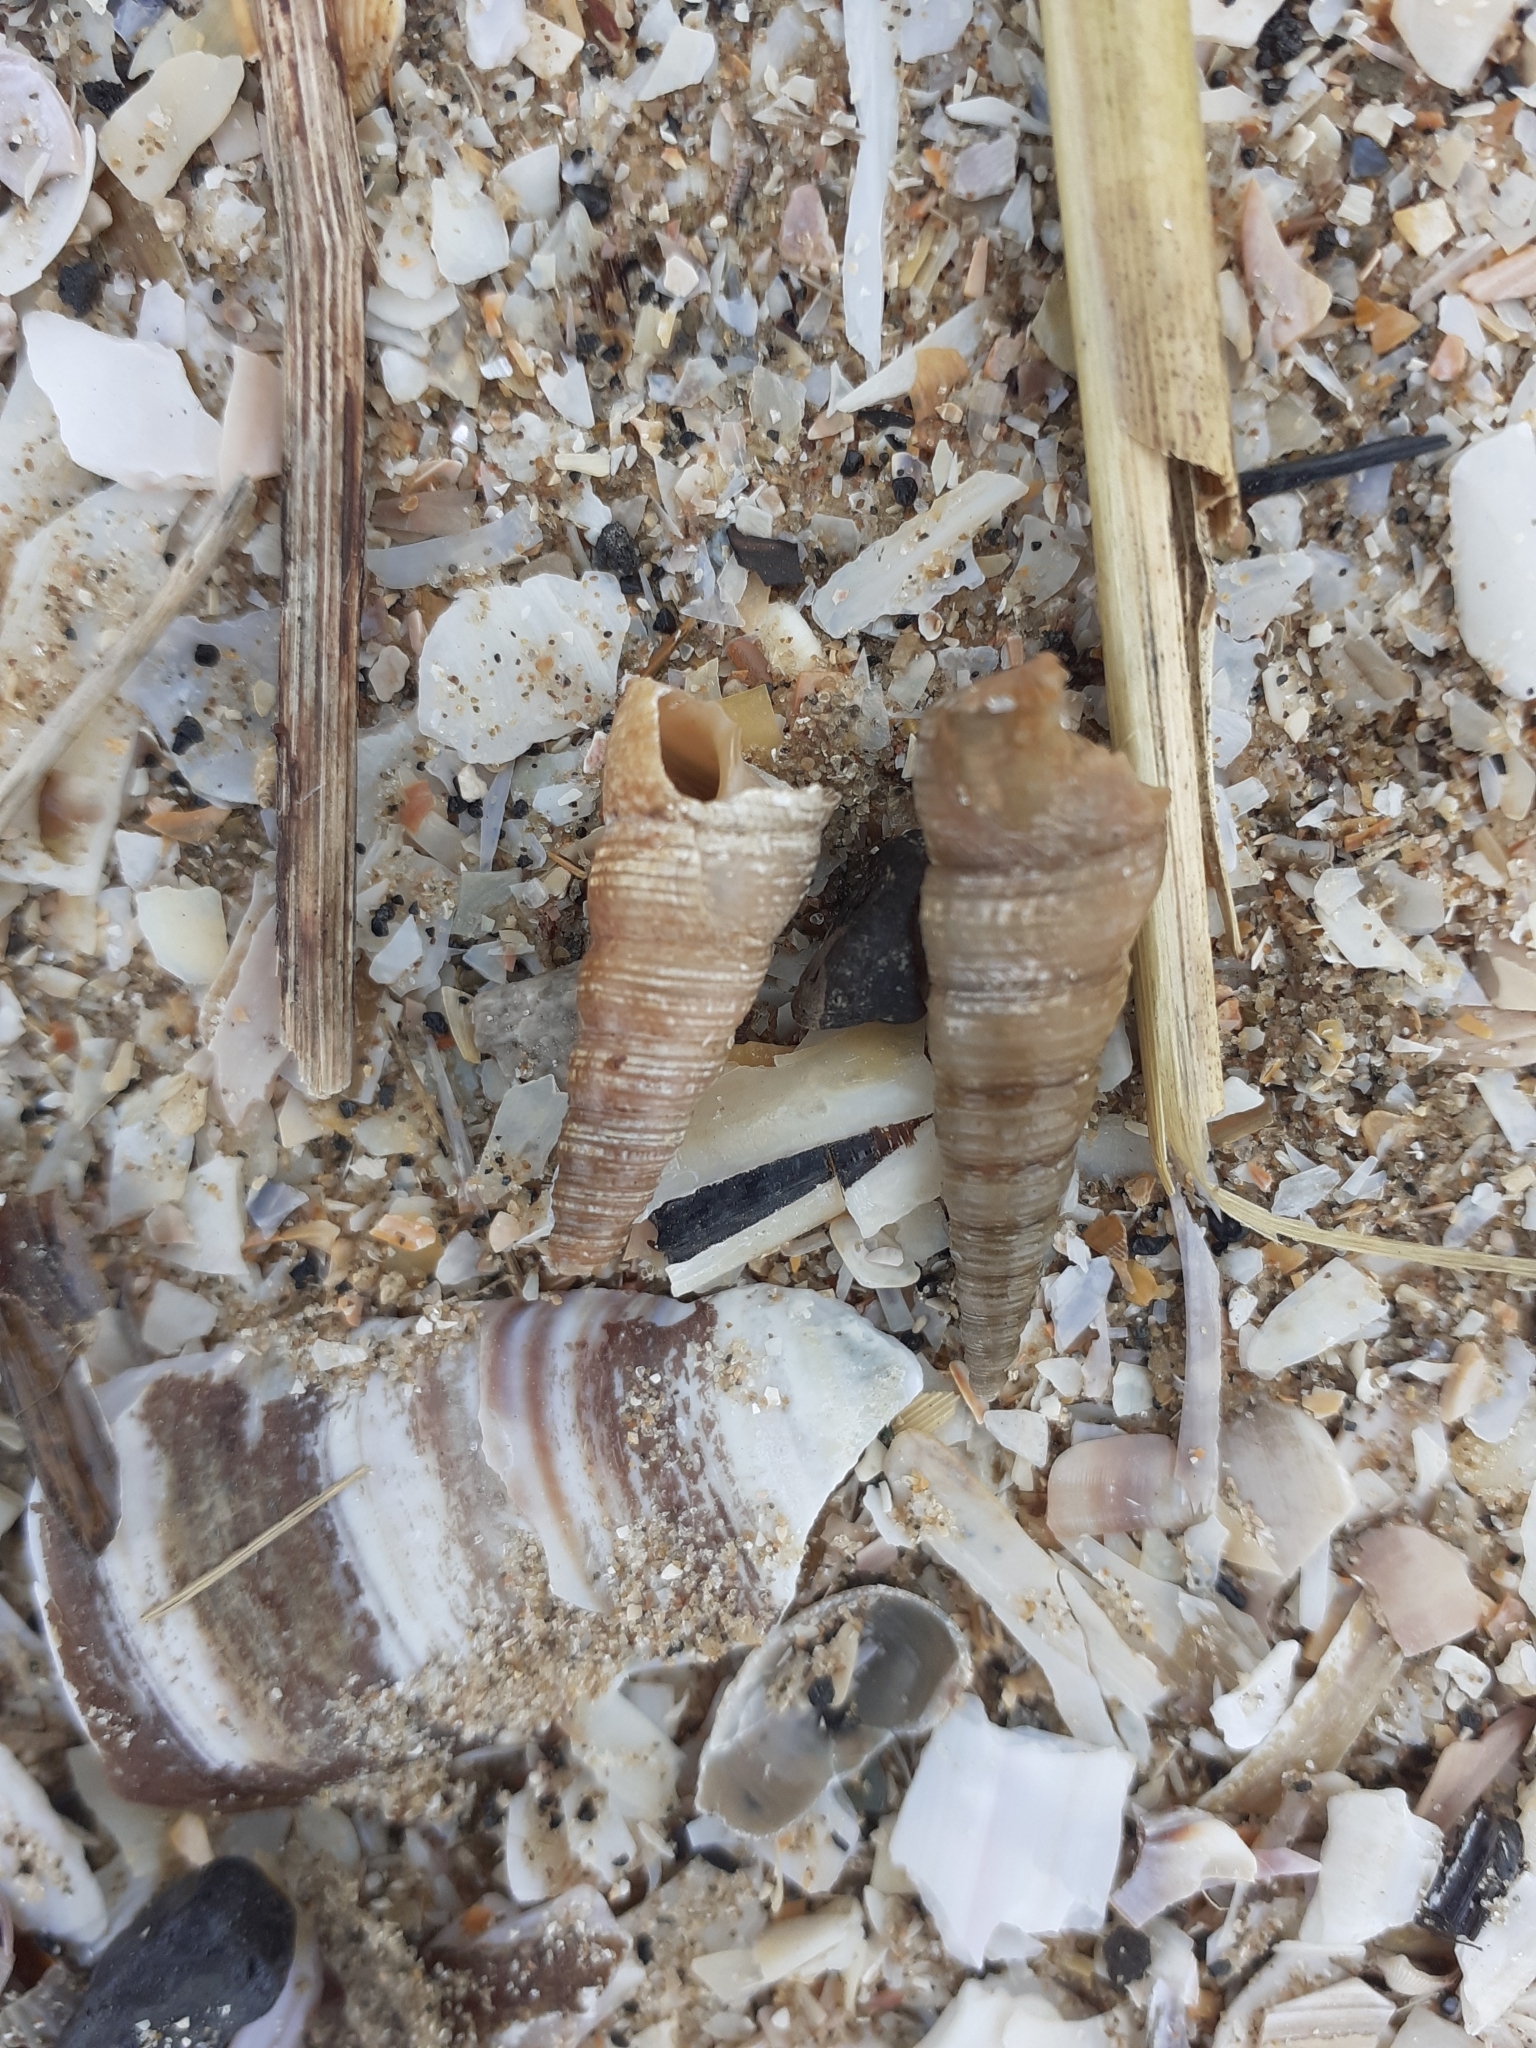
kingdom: Animalia
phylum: Mollusca
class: Gastropoda
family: Turritellidae
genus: Turritellinella
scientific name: Turritellinella tricarinata
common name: Auger shell
